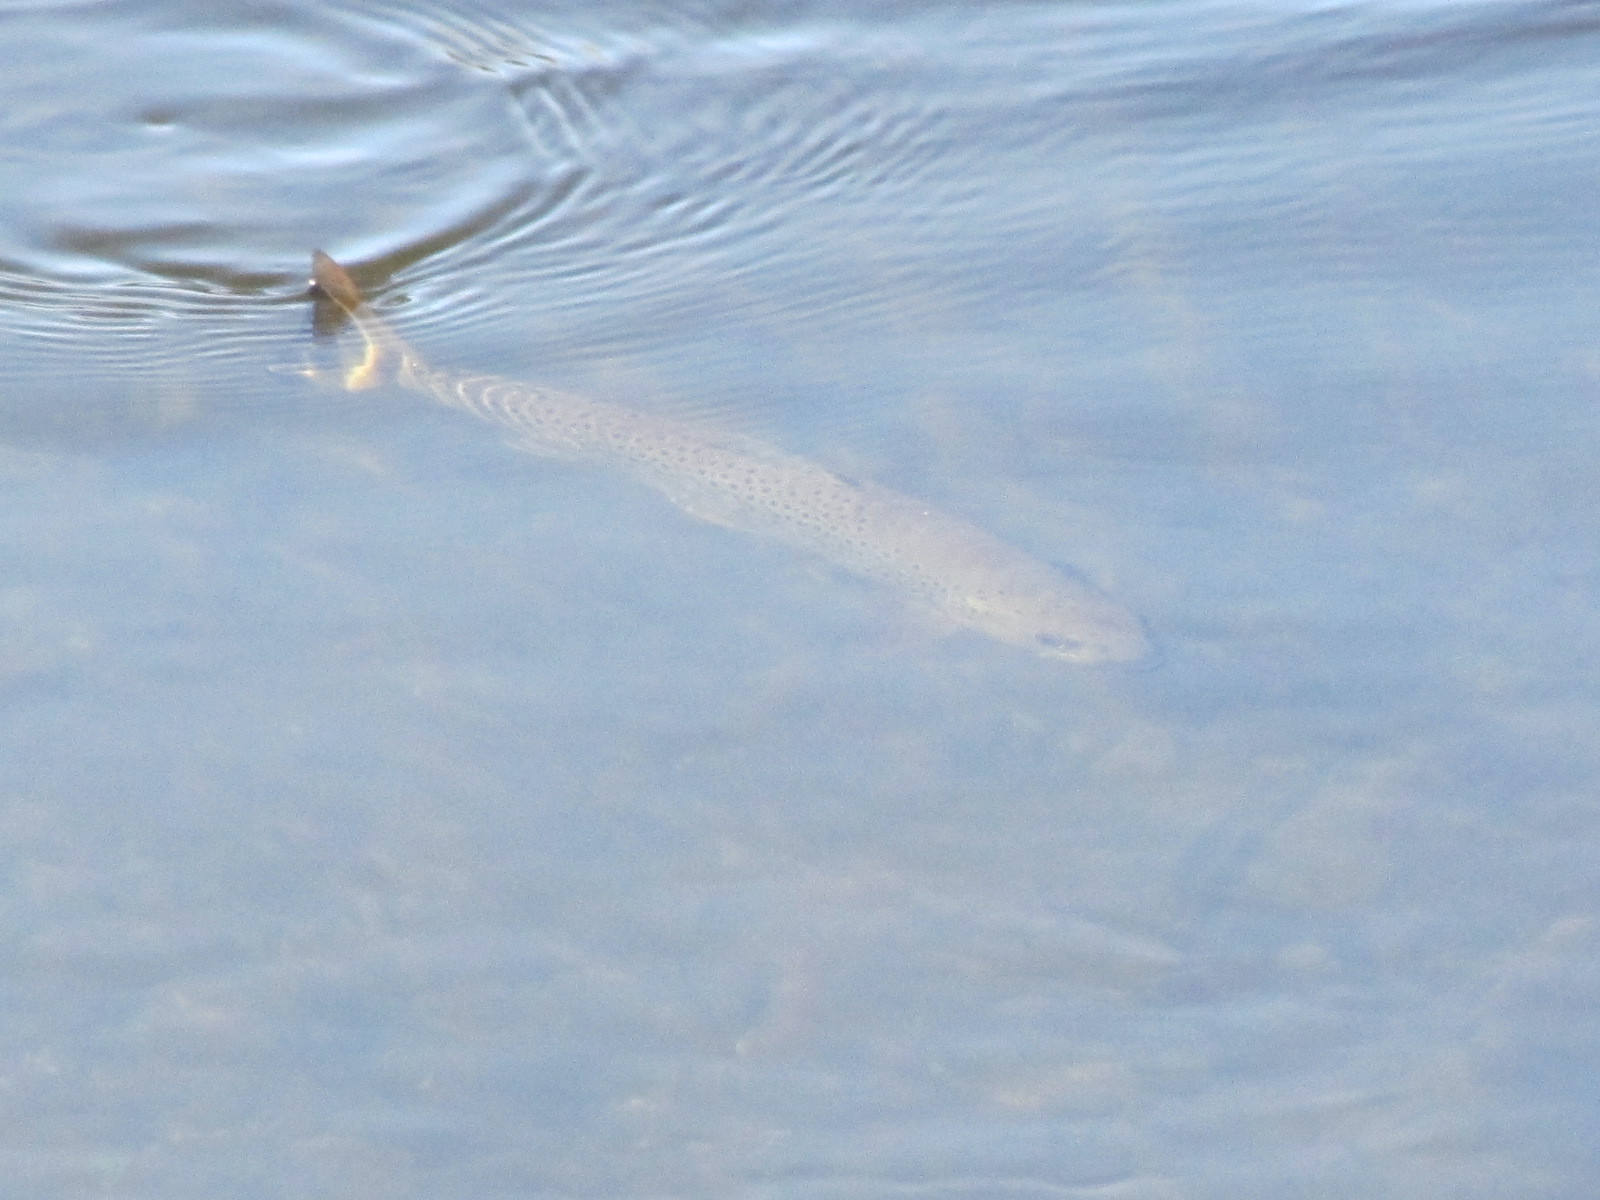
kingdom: Animalia
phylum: Chordata
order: Salmoniformes
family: Salmonidae
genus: Salmo
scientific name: Salmo trutta
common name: Brown trout
